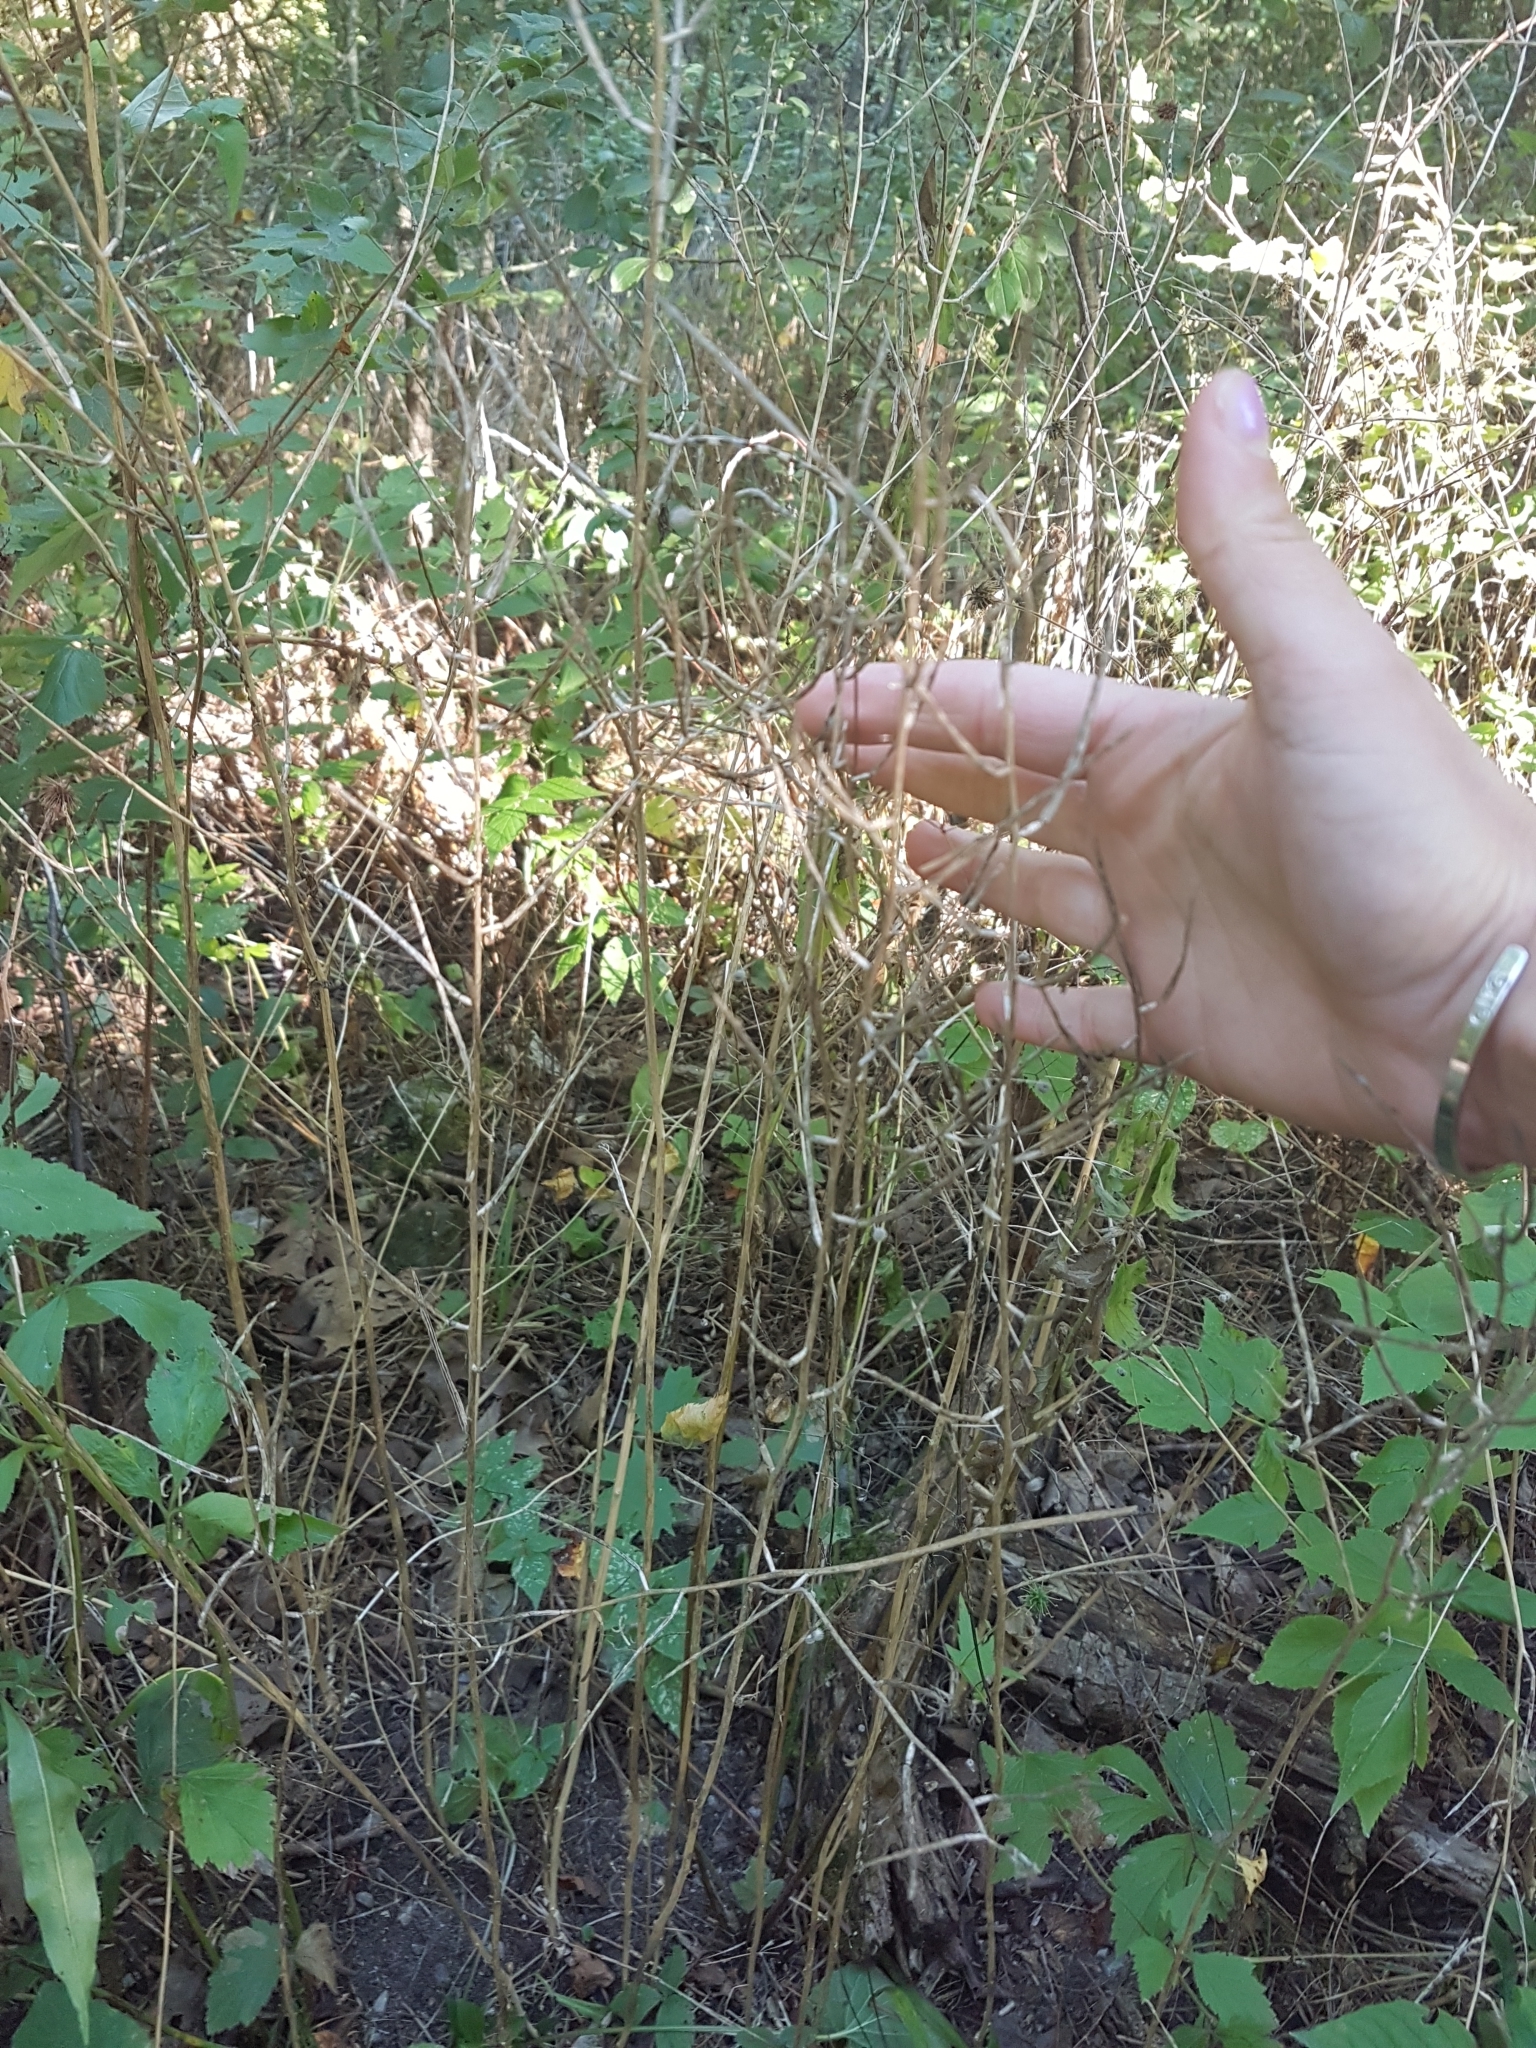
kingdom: Plantae
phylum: Tracheophyta
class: Magnoliopsida
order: Brassicales
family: Brassicaceae
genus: Hesperis
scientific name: Hesperis matronalis
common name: Dame's-violet
